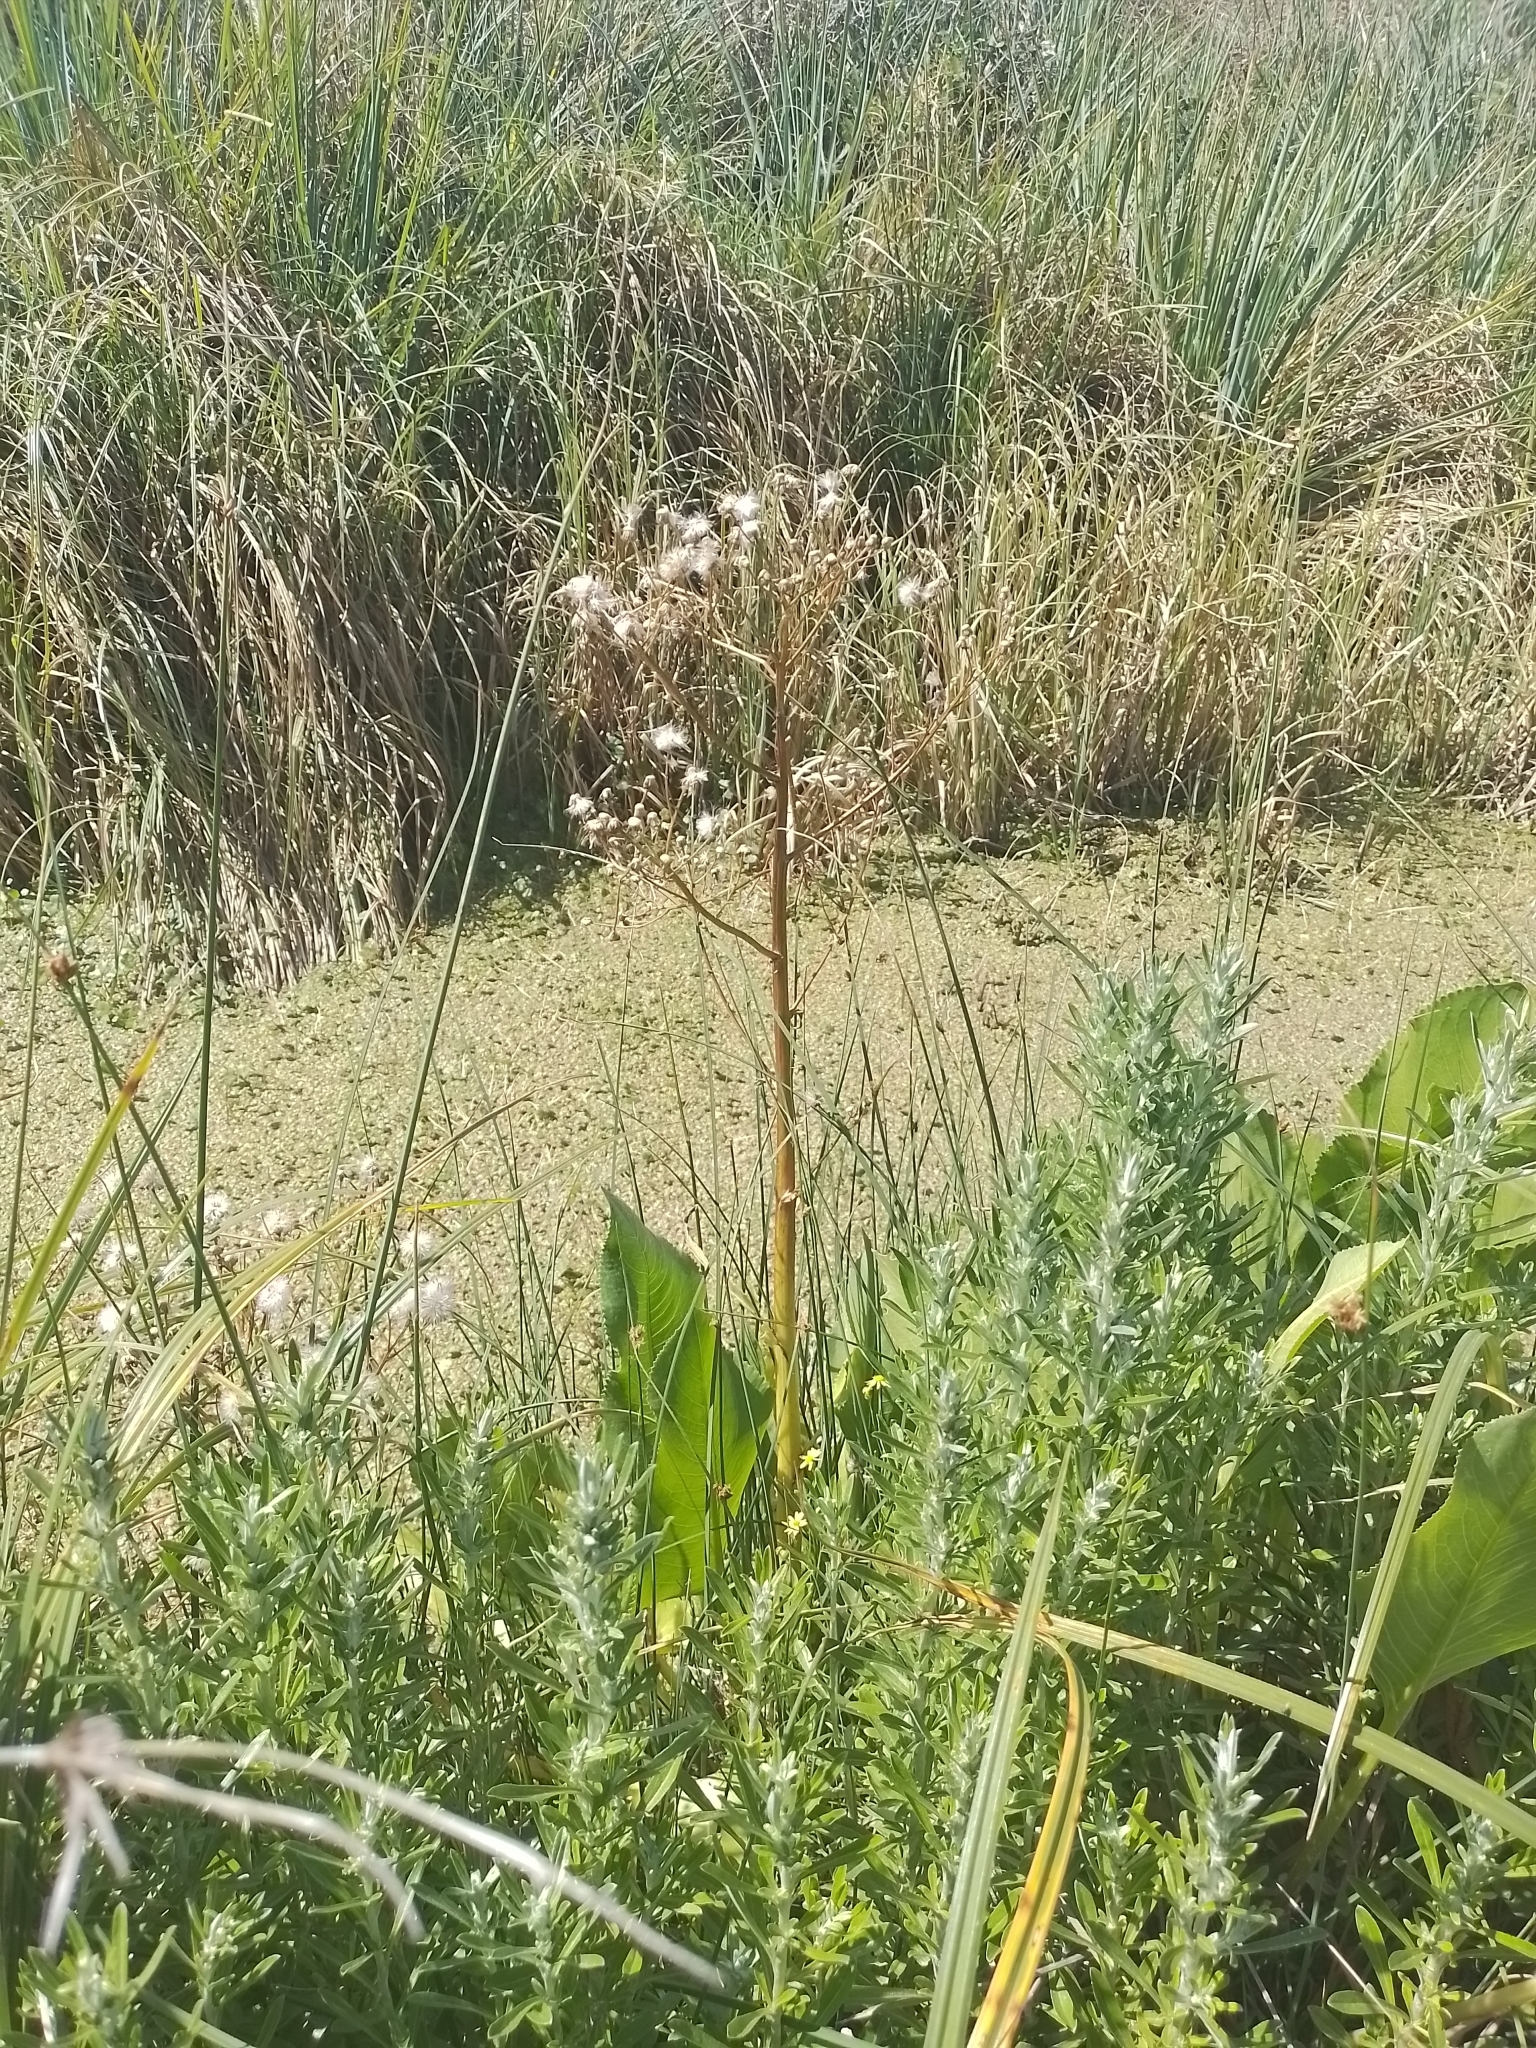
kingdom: Plantae
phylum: Tracheophyta
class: Magnoliopsida
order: Asterales
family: Asteraceae
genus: Senecio
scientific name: Senecio bonariensis
